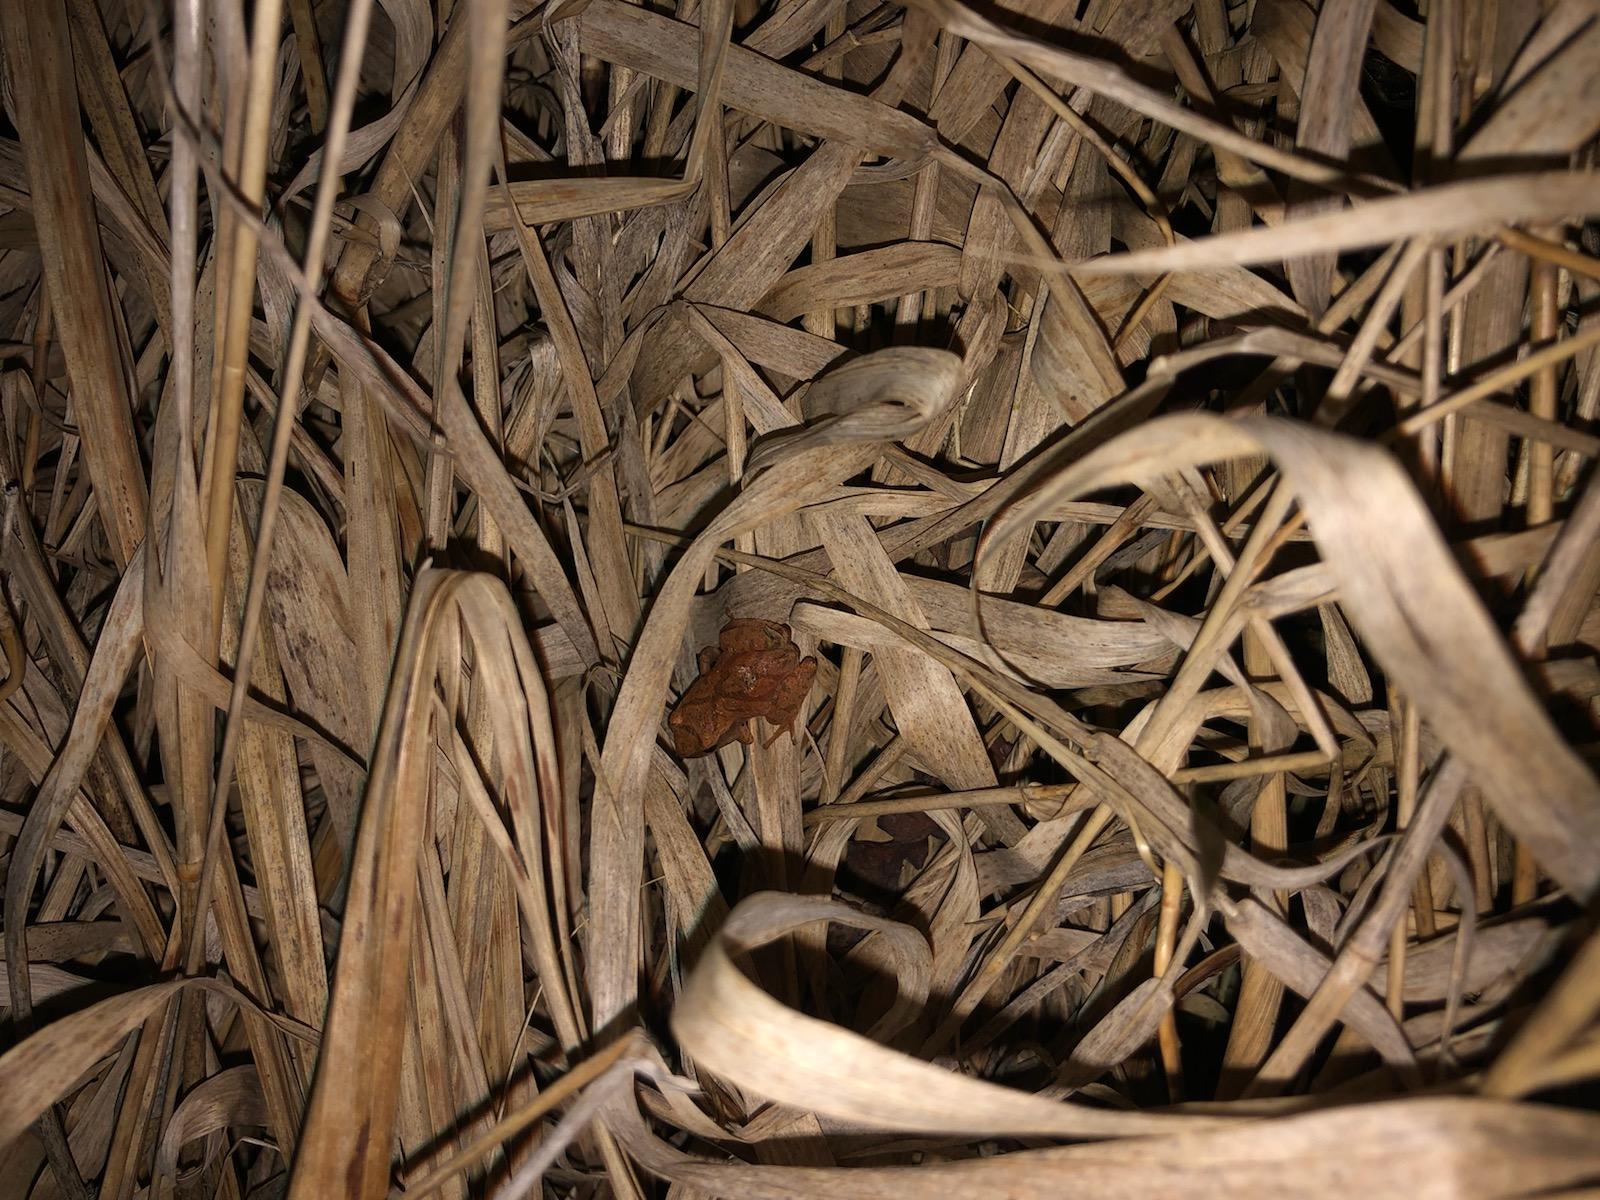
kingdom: Animalia
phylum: Chordata
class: Amphibia
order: Anura
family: Hylidae
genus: Pseudacris
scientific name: Pseudacris crucifer
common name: Spring peeper
